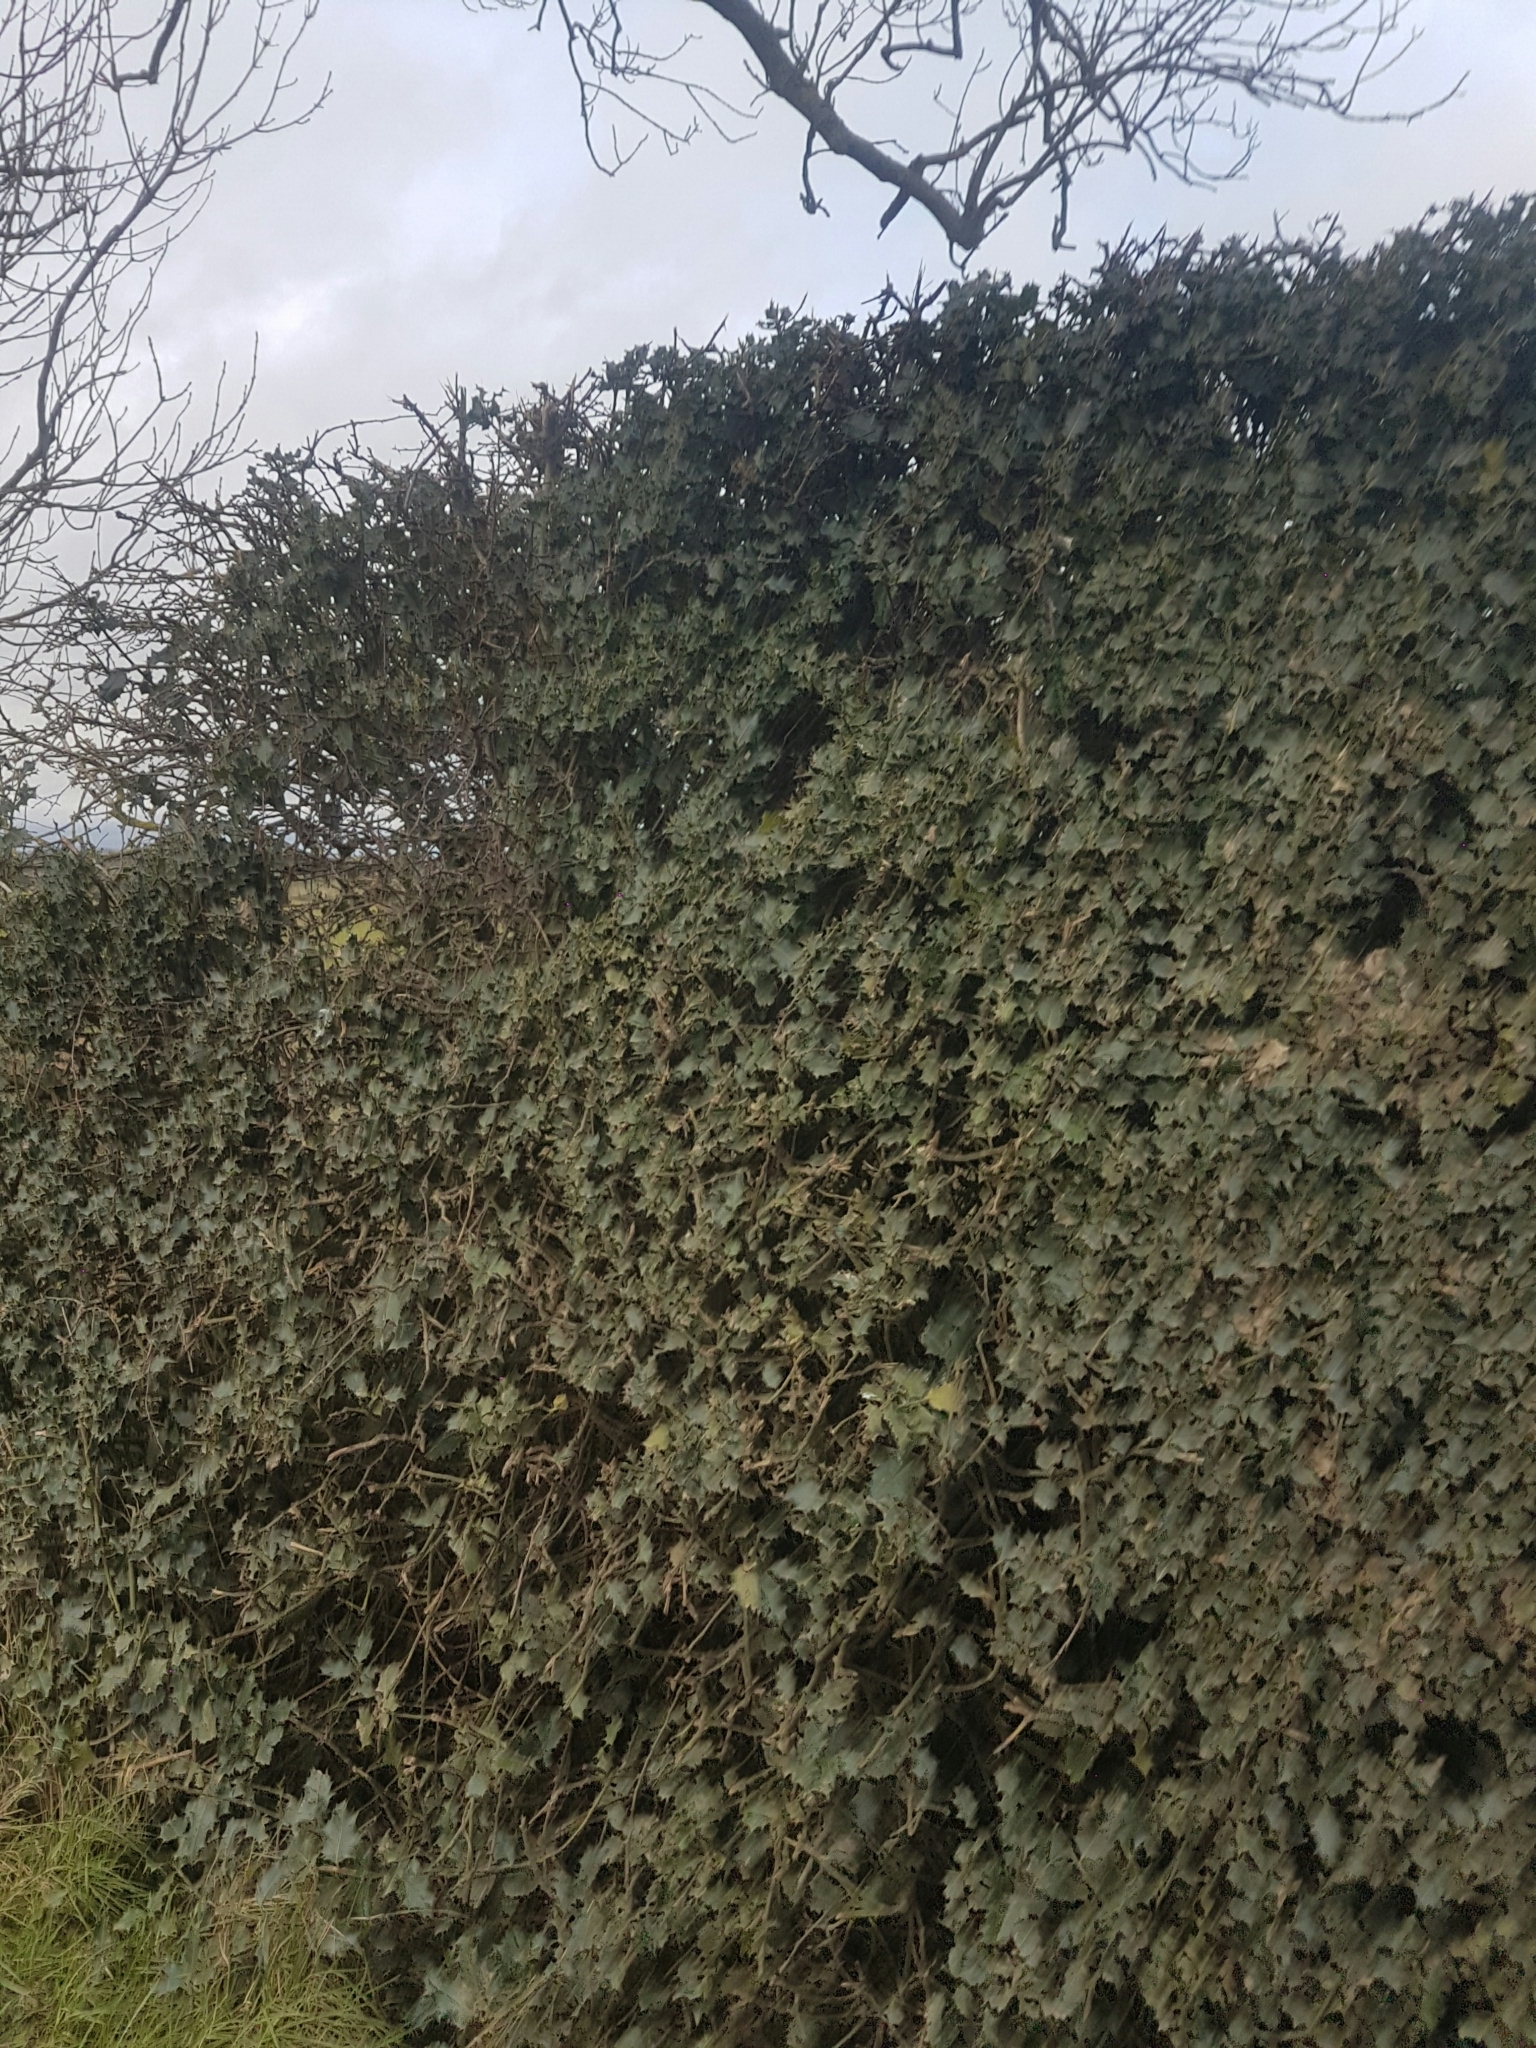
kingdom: Plantae
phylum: Tracheophyta
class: Magnoliopsida
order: Aquifoliales
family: Aquifoliaceae
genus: Ilex
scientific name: Ilex aquifolium
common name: English holly
